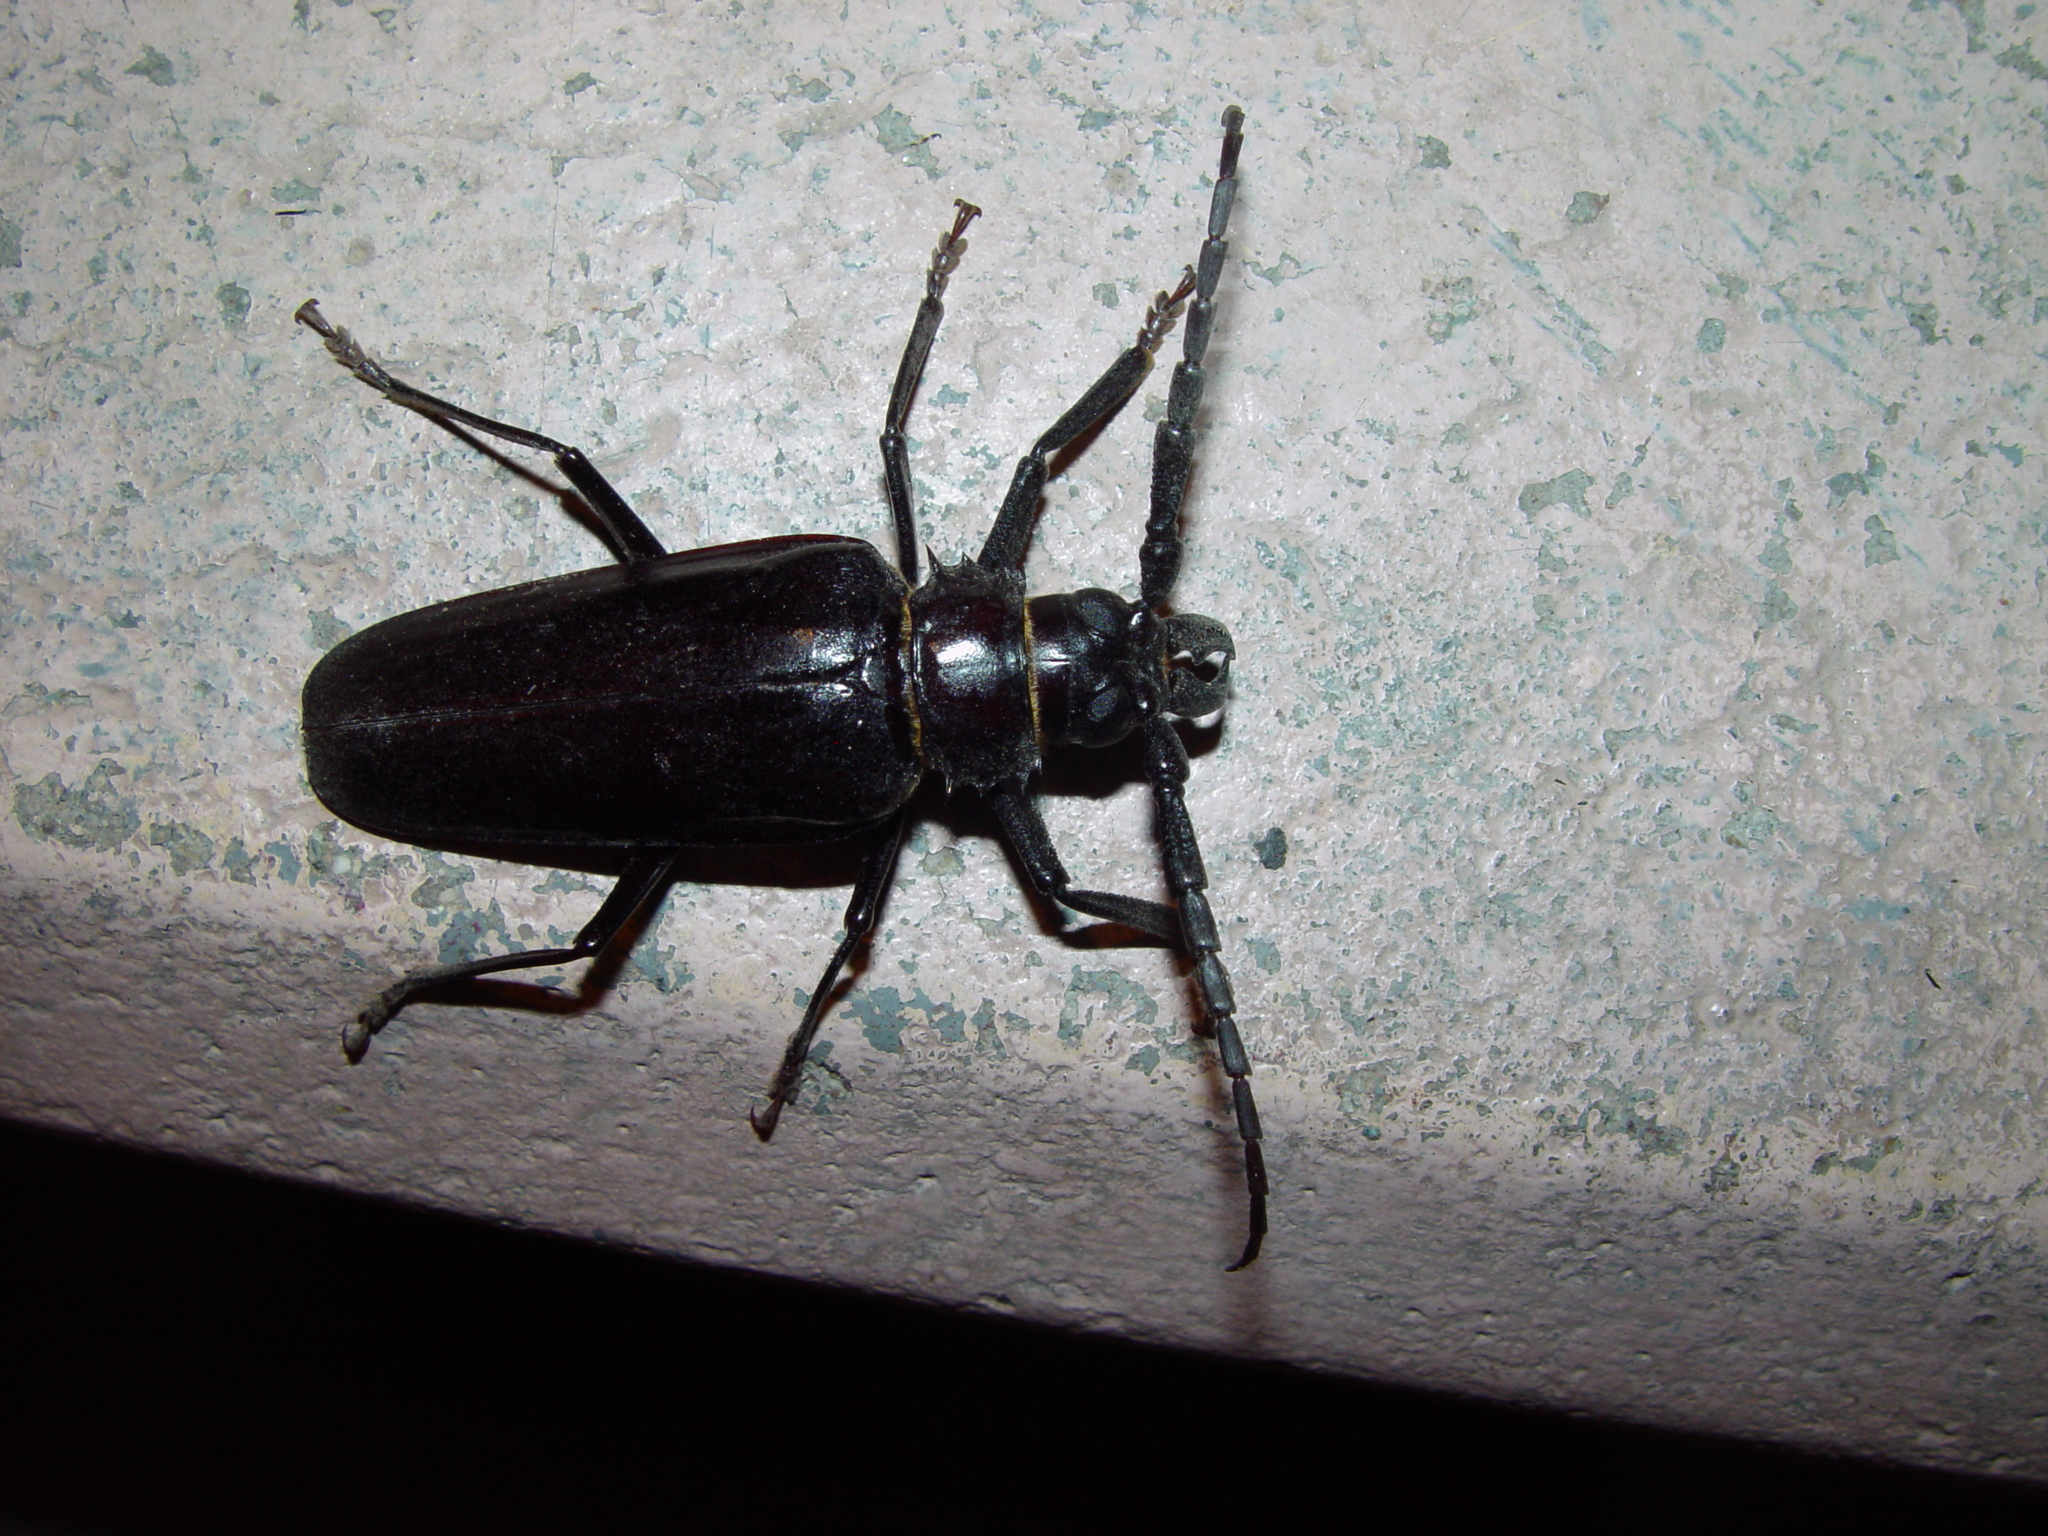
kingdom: Animalia
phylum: Arthropoda
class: Insecta
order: Coleoptera
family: Cerambycidae
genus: Derobrachus
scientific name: Derobrachus hovorei
